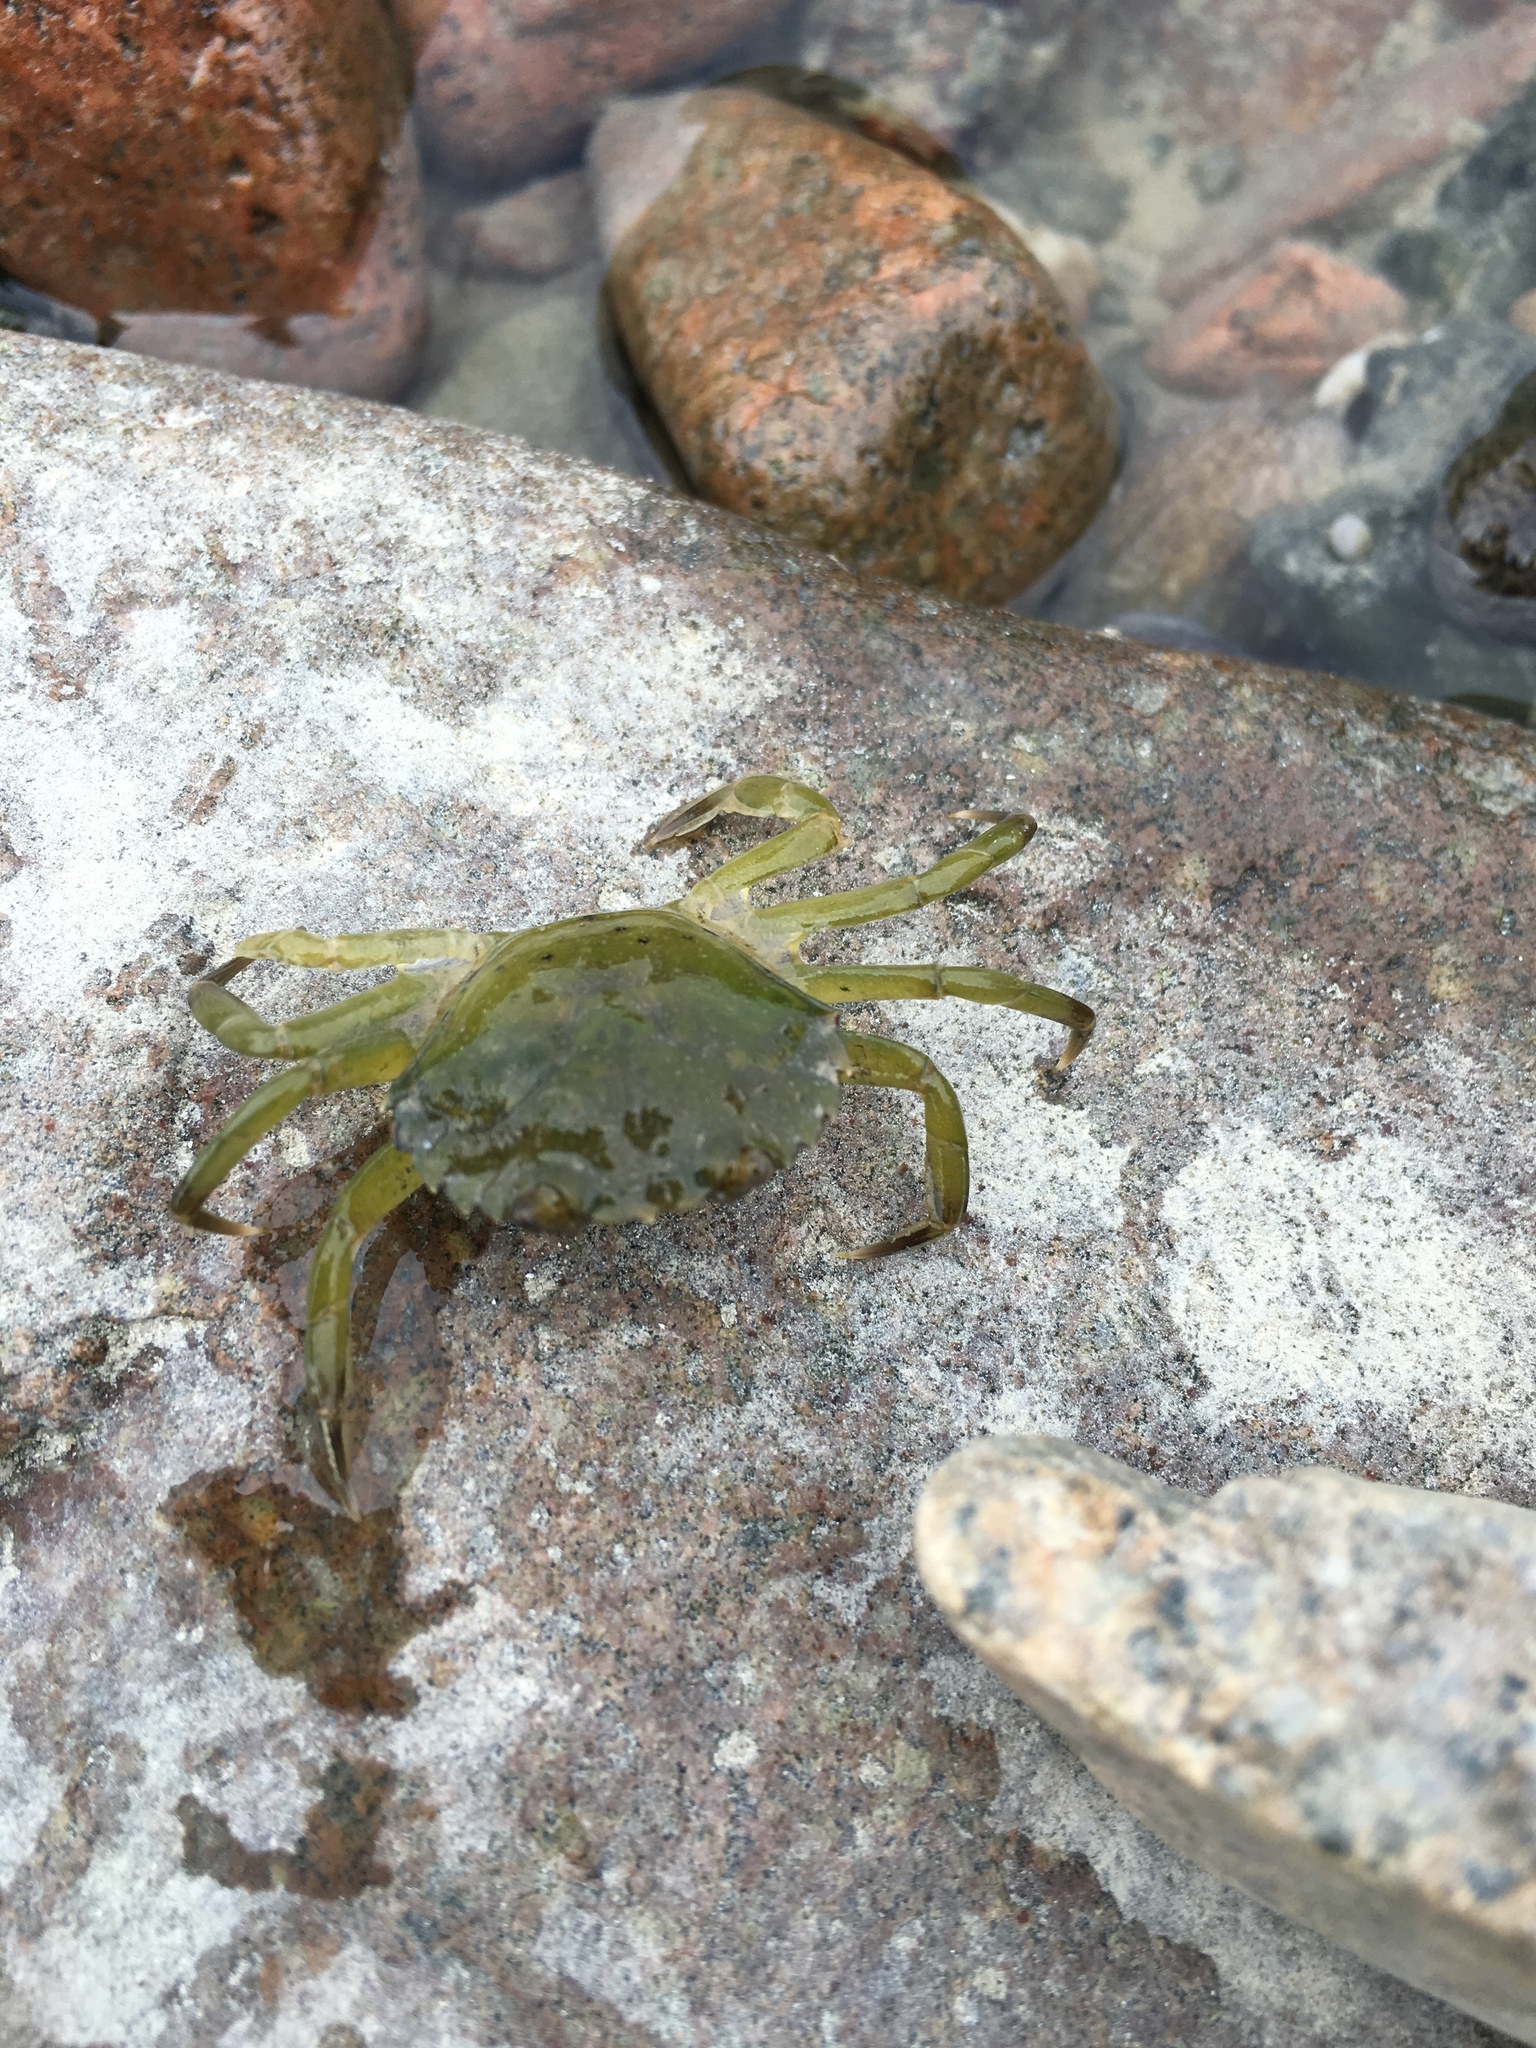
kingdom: Animalia
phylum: Arthropoda
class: Malacostraca
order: Decapoda
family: Carcinidae
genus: Carcinus
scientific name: Carcinus maenas
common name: European green crab
